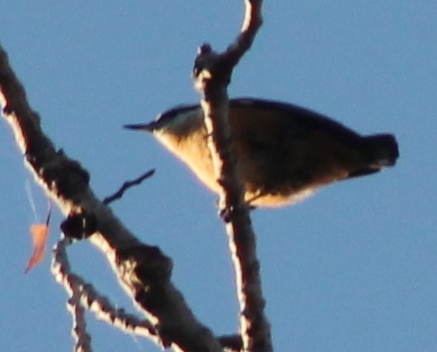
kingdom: Animalia
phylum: Chordata
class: Aves
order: Passeriformes
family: Sittidae
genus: Sitta
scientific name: Sitta canadensis
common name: Red-breasted nuthatch
